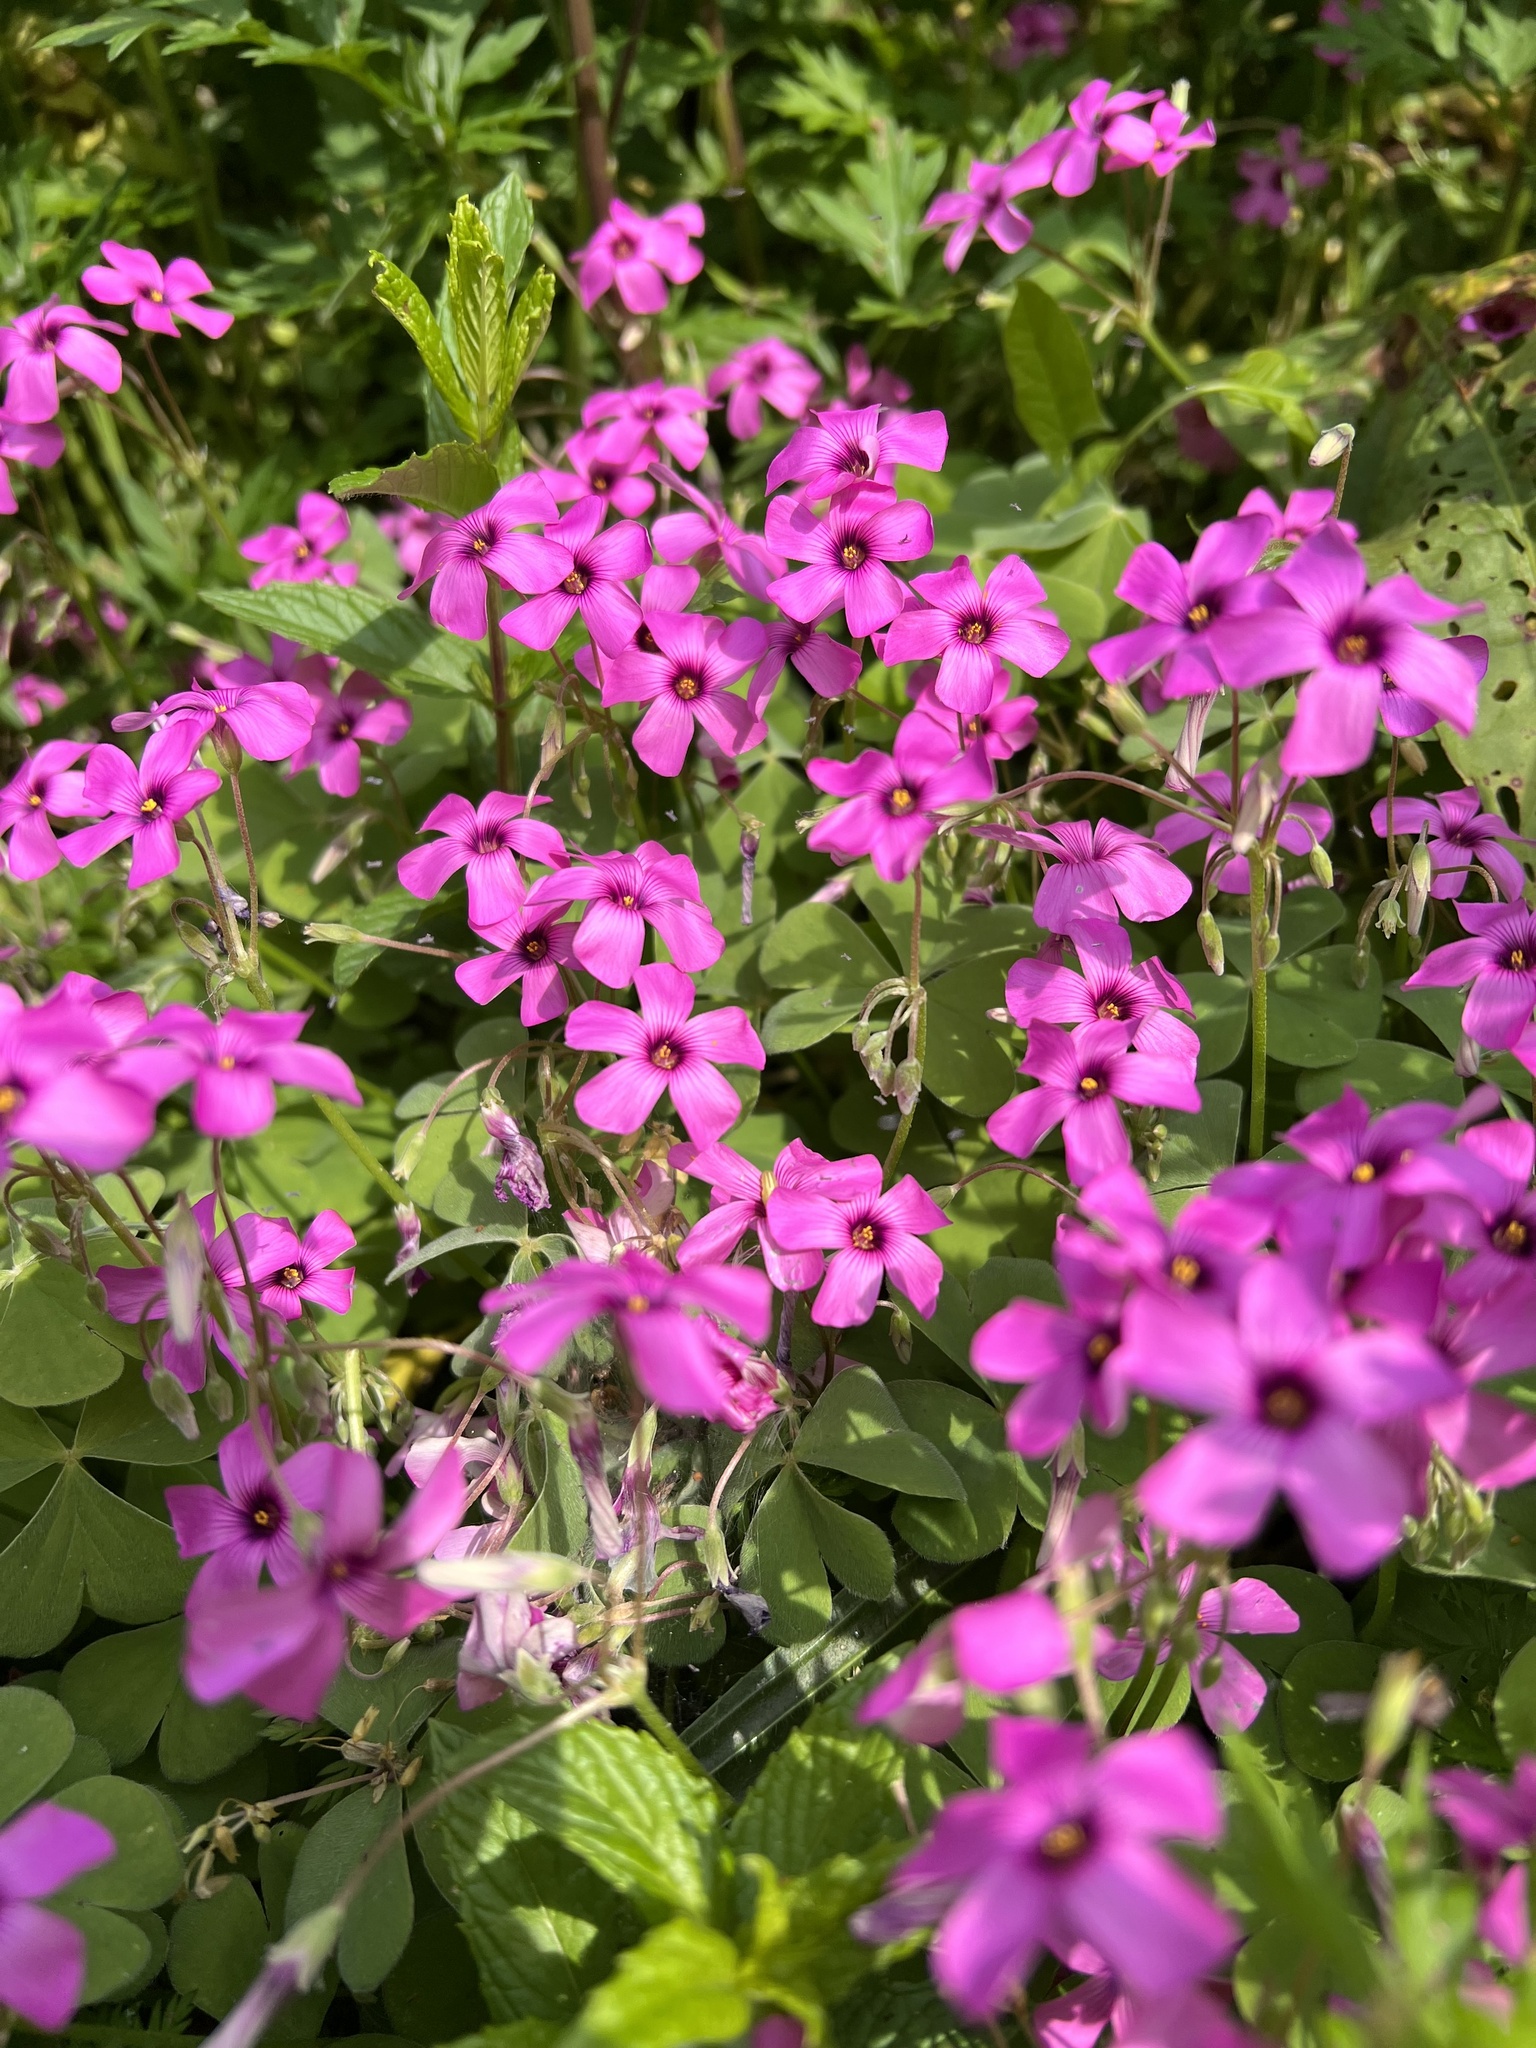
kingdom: Plantae
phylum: Tracheophyta
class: Magnoliopsida
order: Oxalidales
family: Oxalidaceae
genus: Oxalis
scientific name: Oxalis articulata
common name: Pink-sorrel
